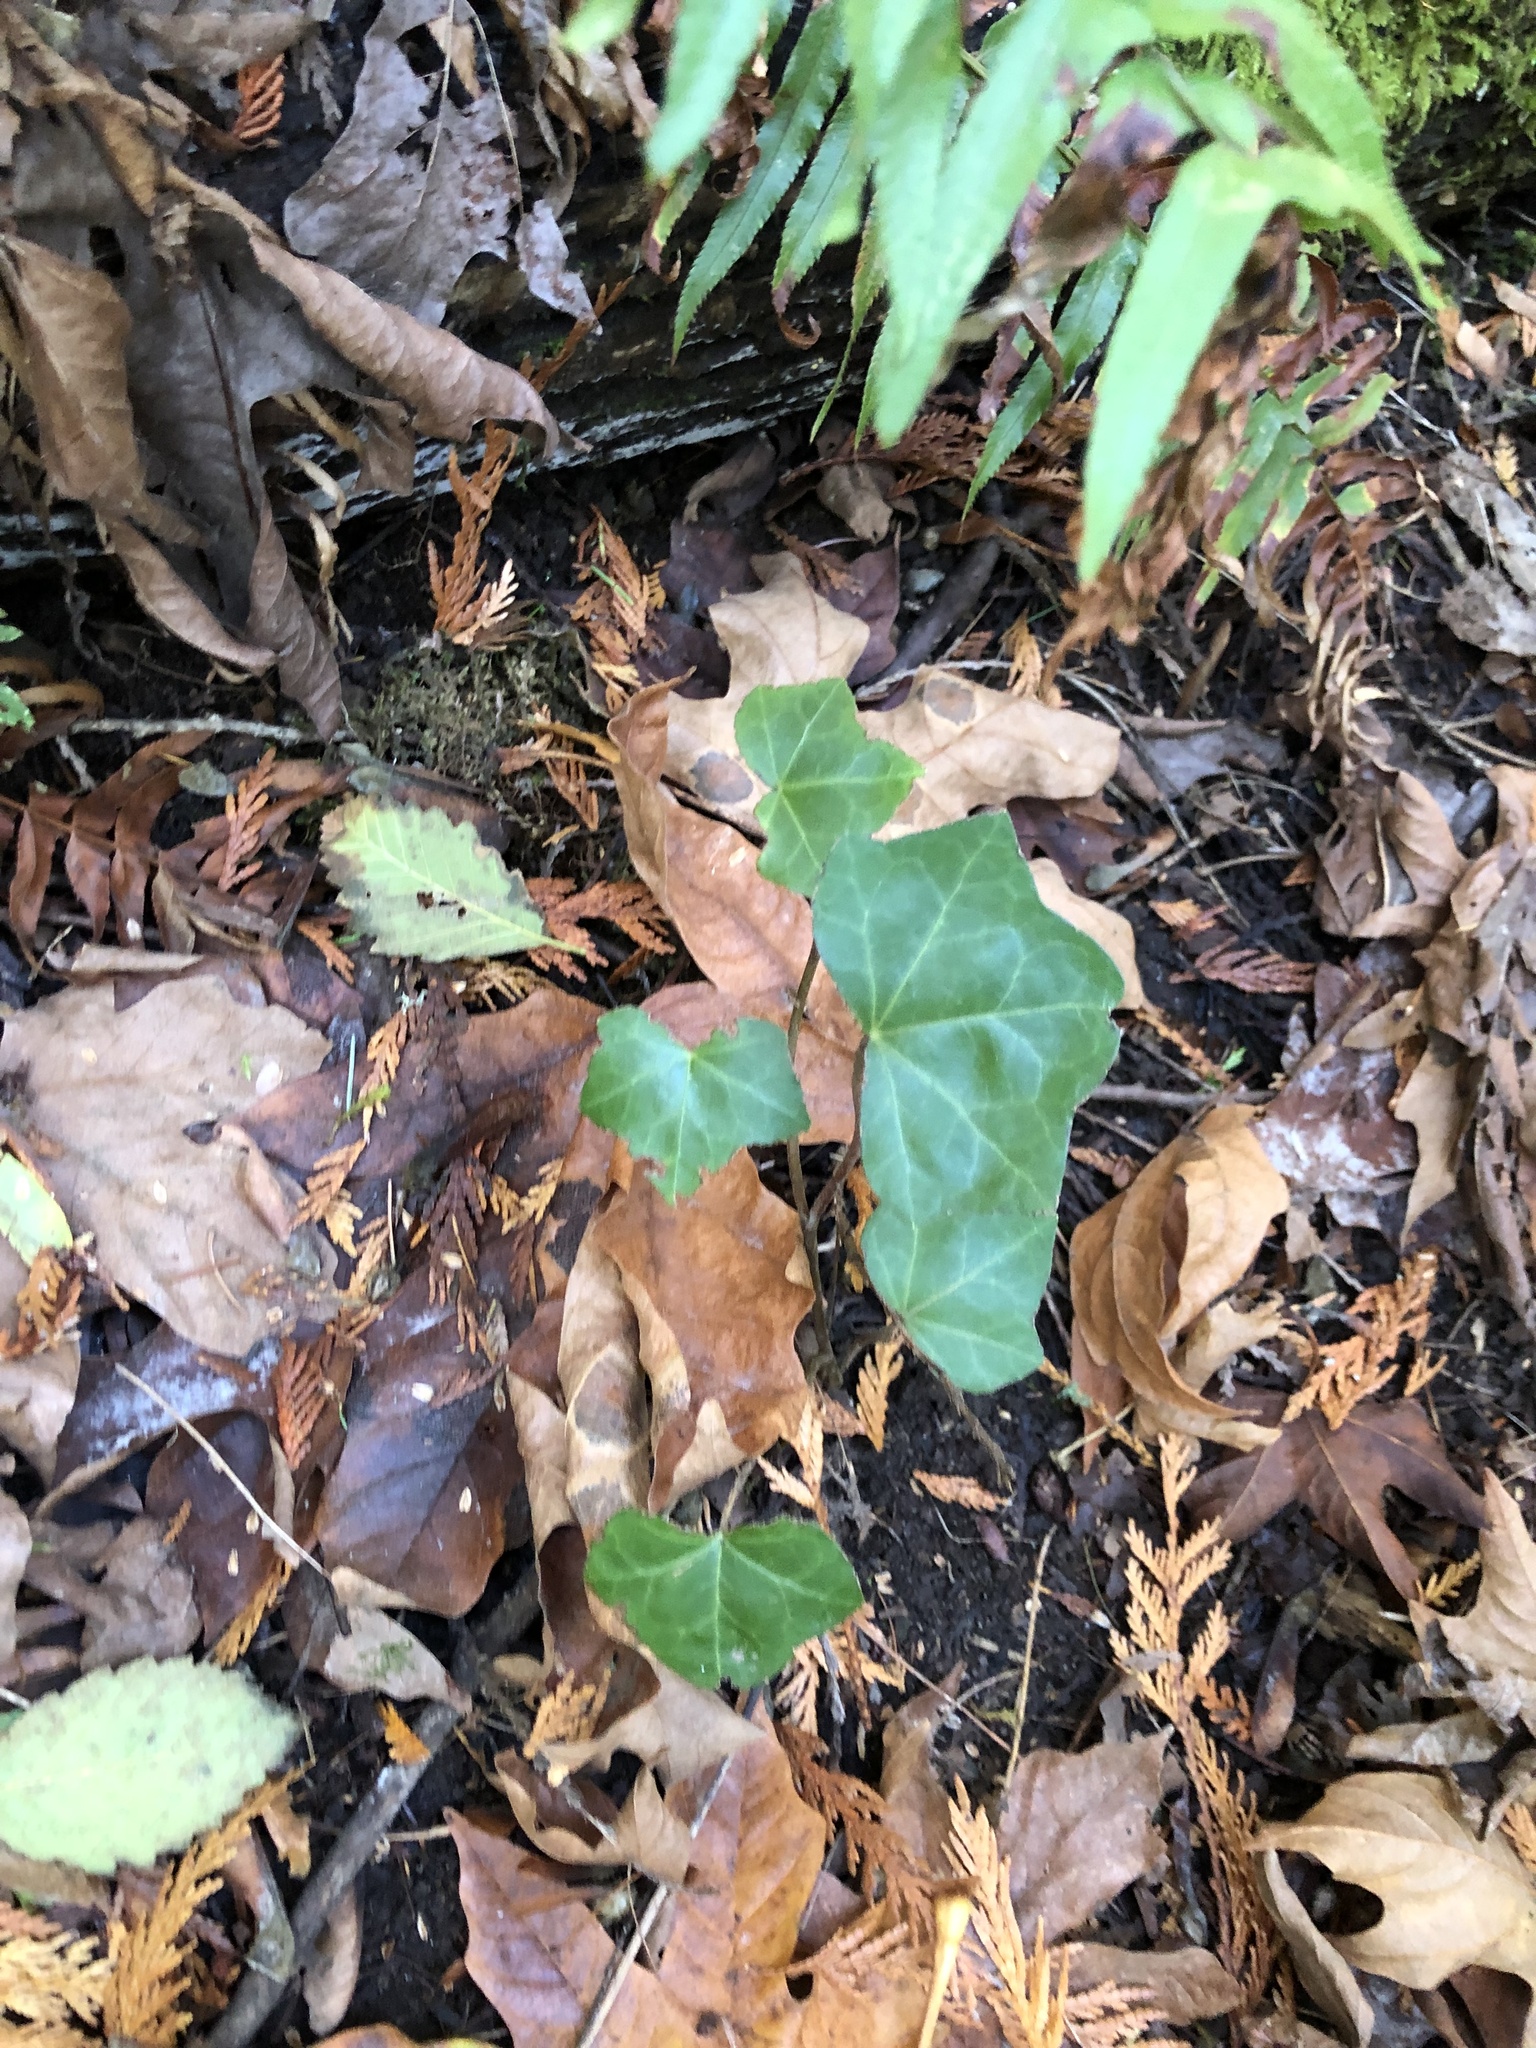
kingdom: Plantae
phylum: Tracheophyta
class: Magnoliopsida
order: Apiales
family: Araliaceae
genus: Hedera
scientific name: Hedera helix
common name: Ivy
